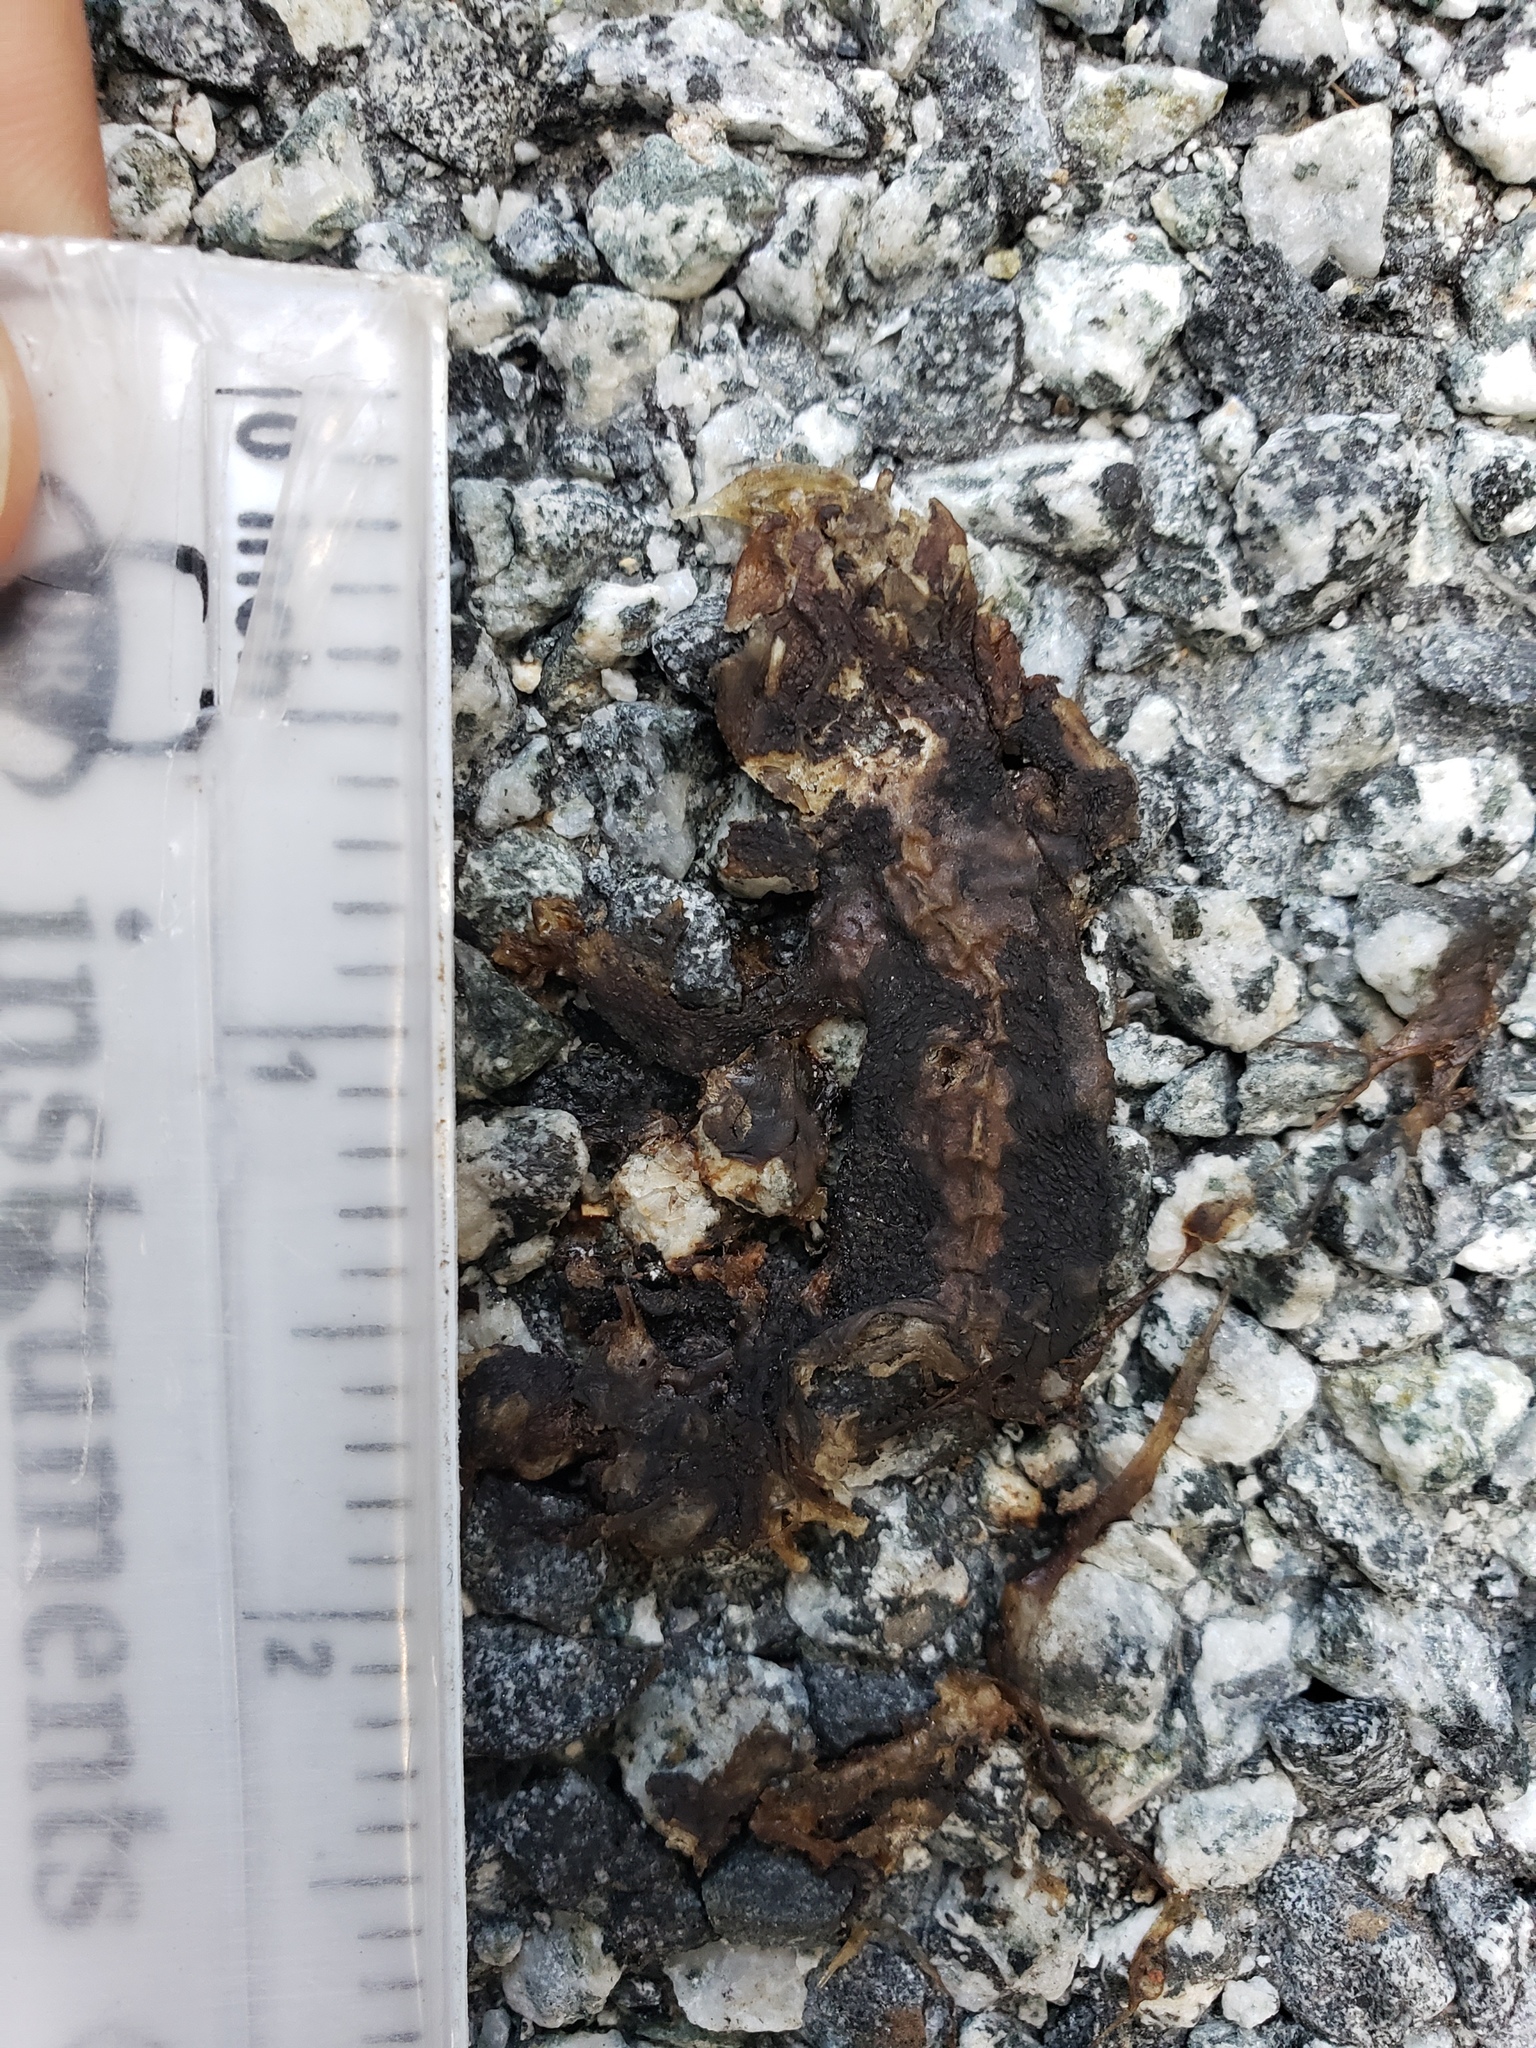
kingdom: Animalia
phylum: Chordata
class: Amphibia
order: Caudata
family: Salamandridae
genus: Taricha
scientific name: Taricha
